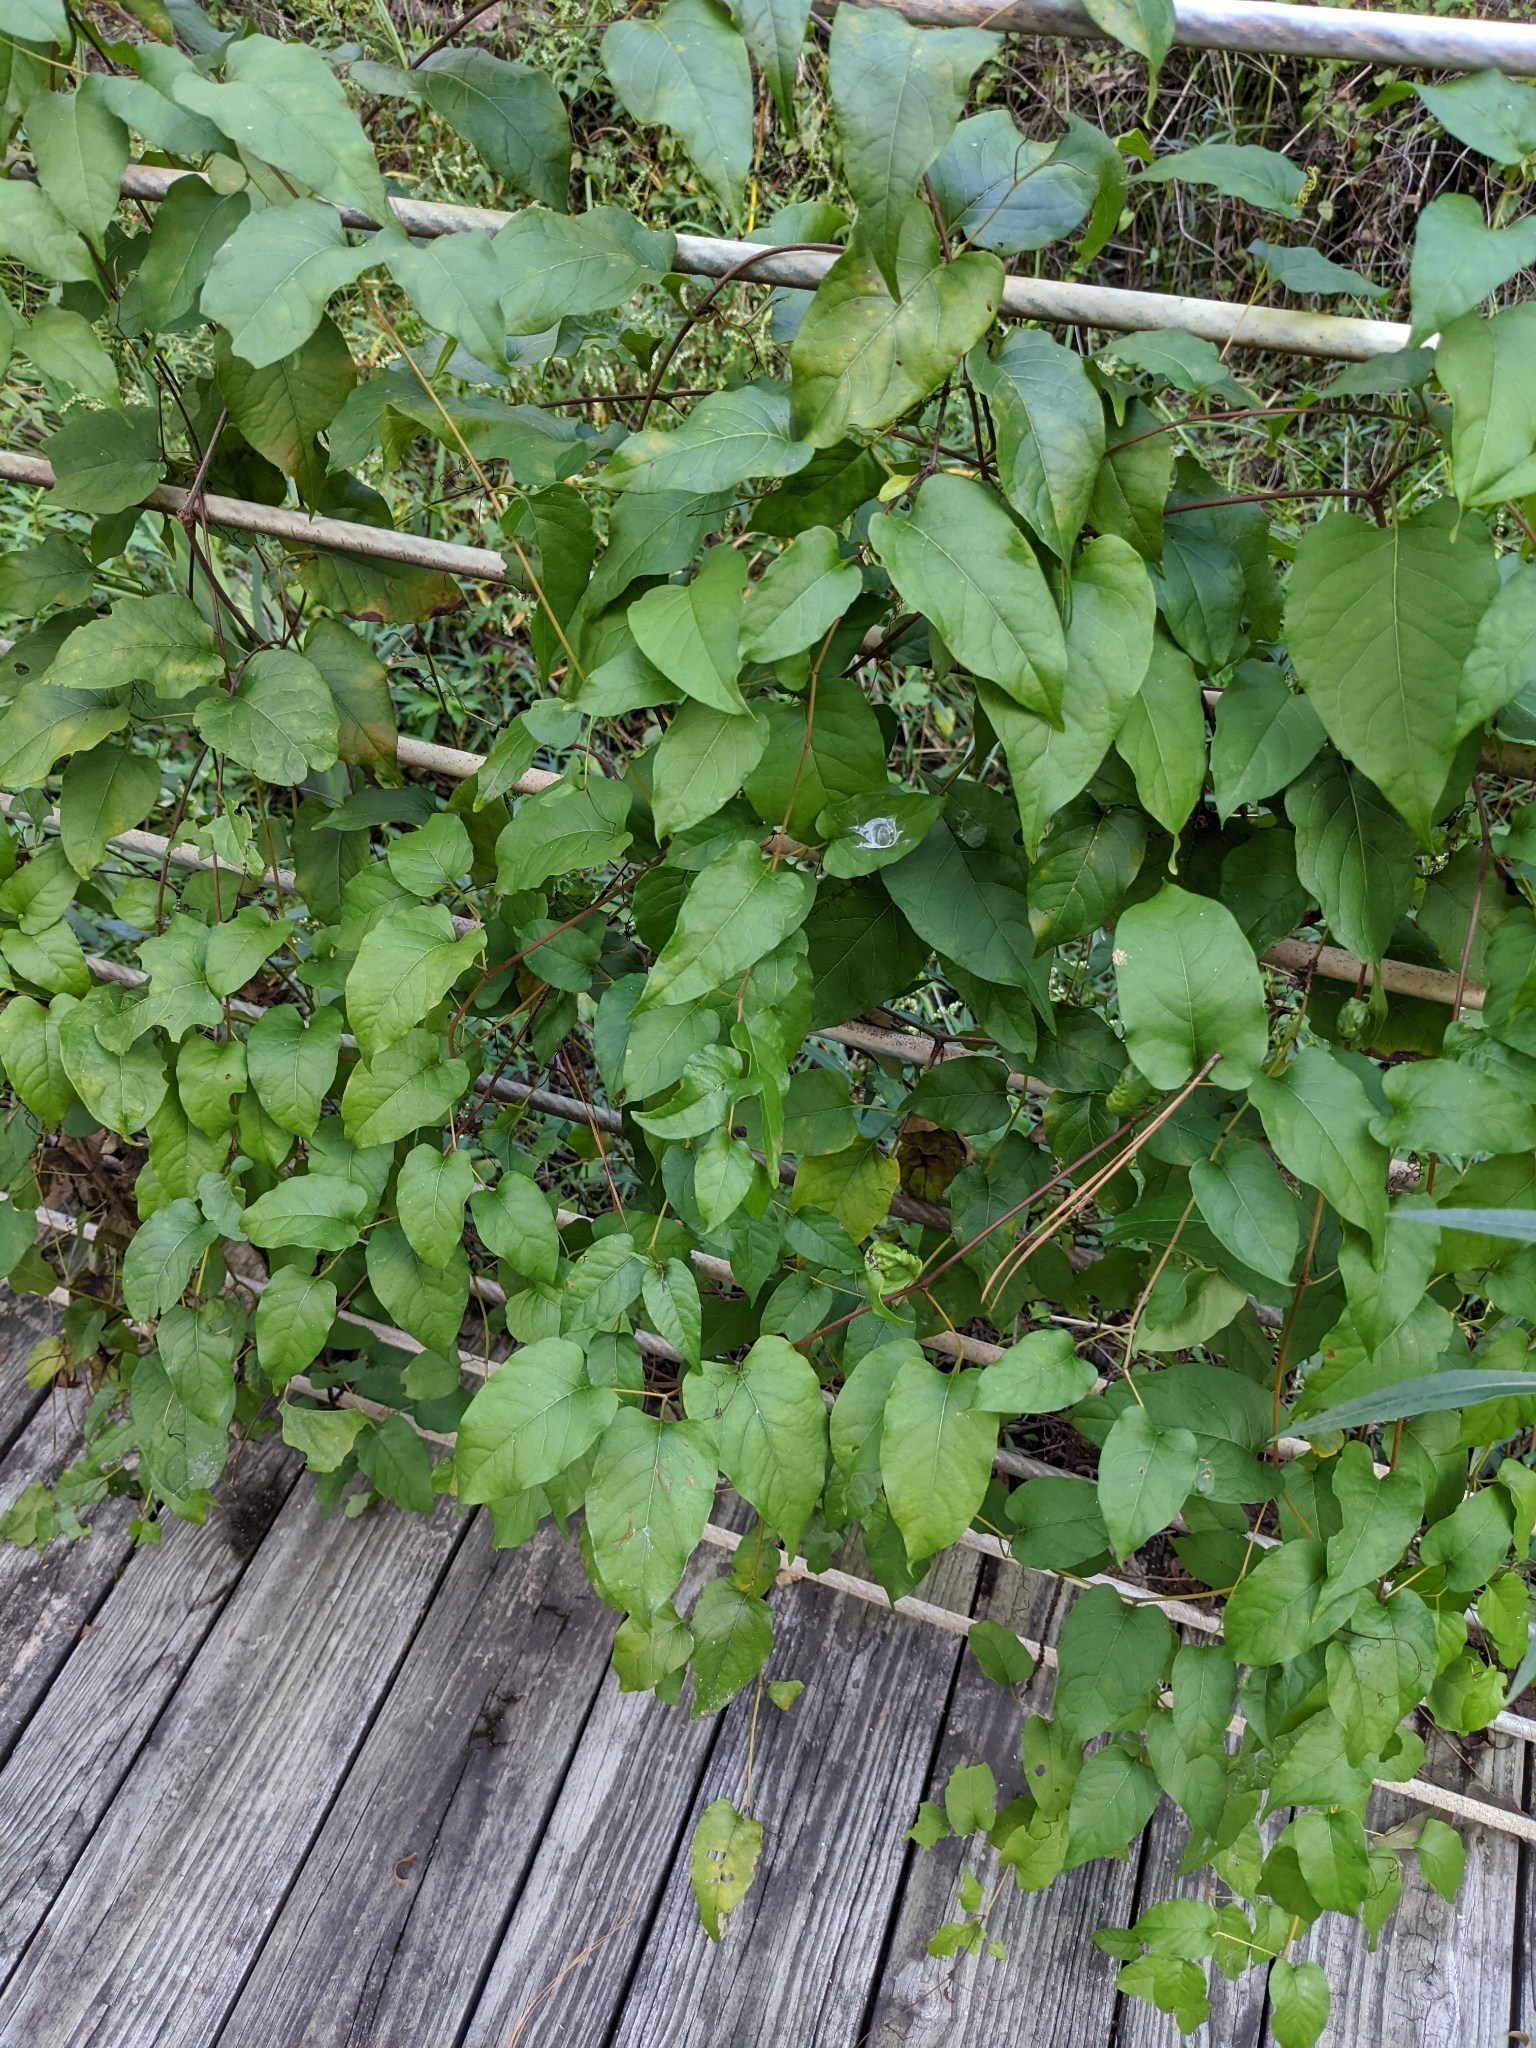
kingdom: Plantae
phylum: Tracheophyta
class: Magnoliopsida
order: Caryophyllales
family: Polygonaceae
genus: Brunnichia
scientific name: Brunnichia ovata
